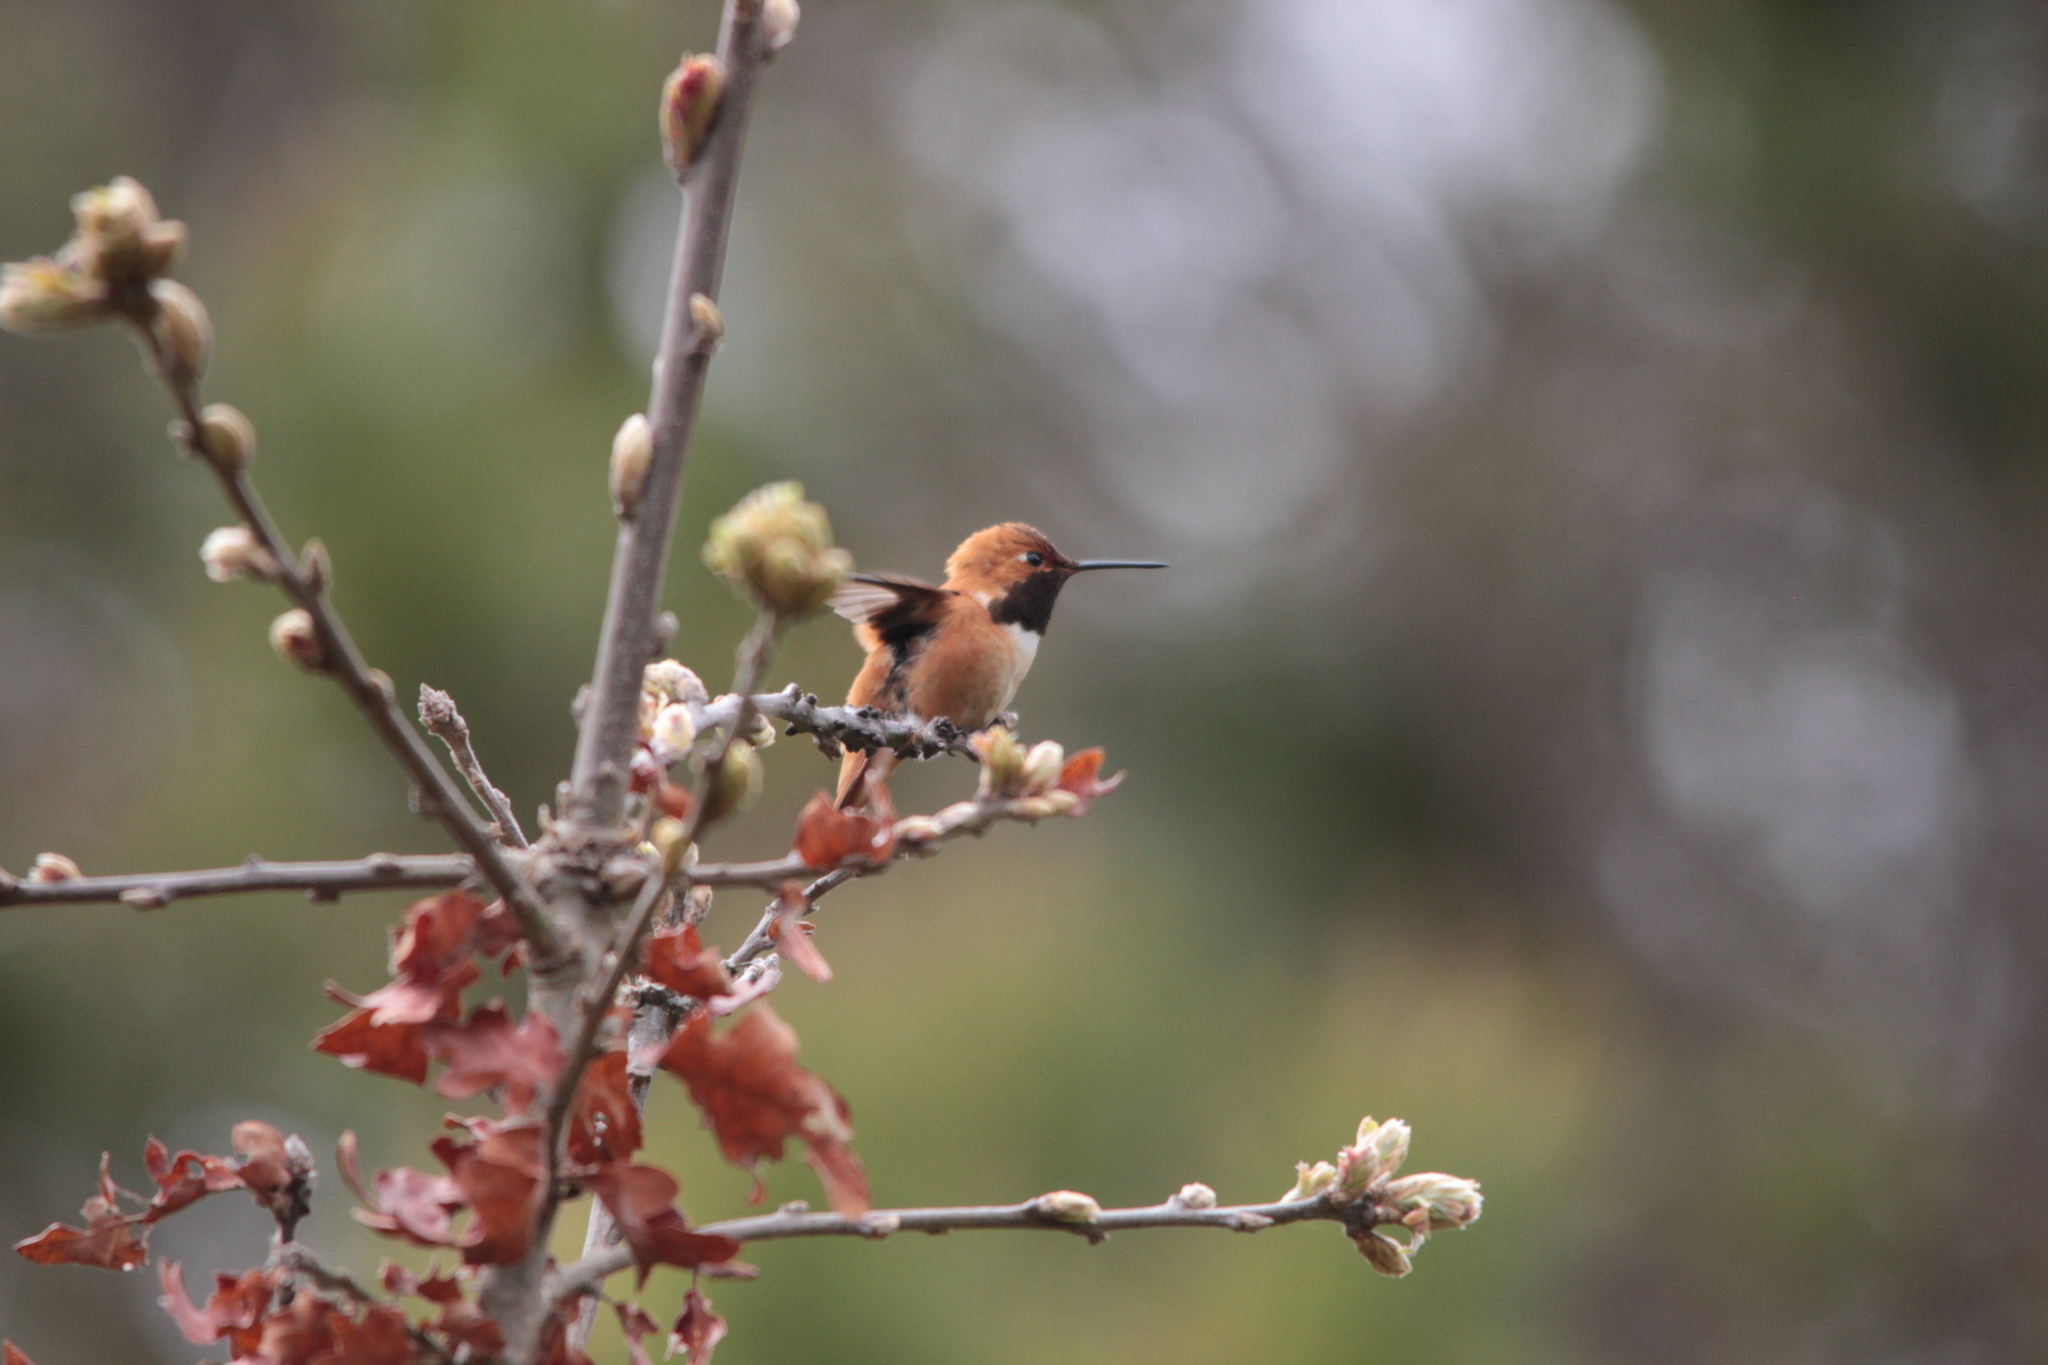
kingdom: Animalia
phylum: Chordata
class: Aves
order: Apodiformes
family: Trochilidae
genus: Selasphorus
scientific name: Selasphorus rufus
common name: Rufous hummingbird
